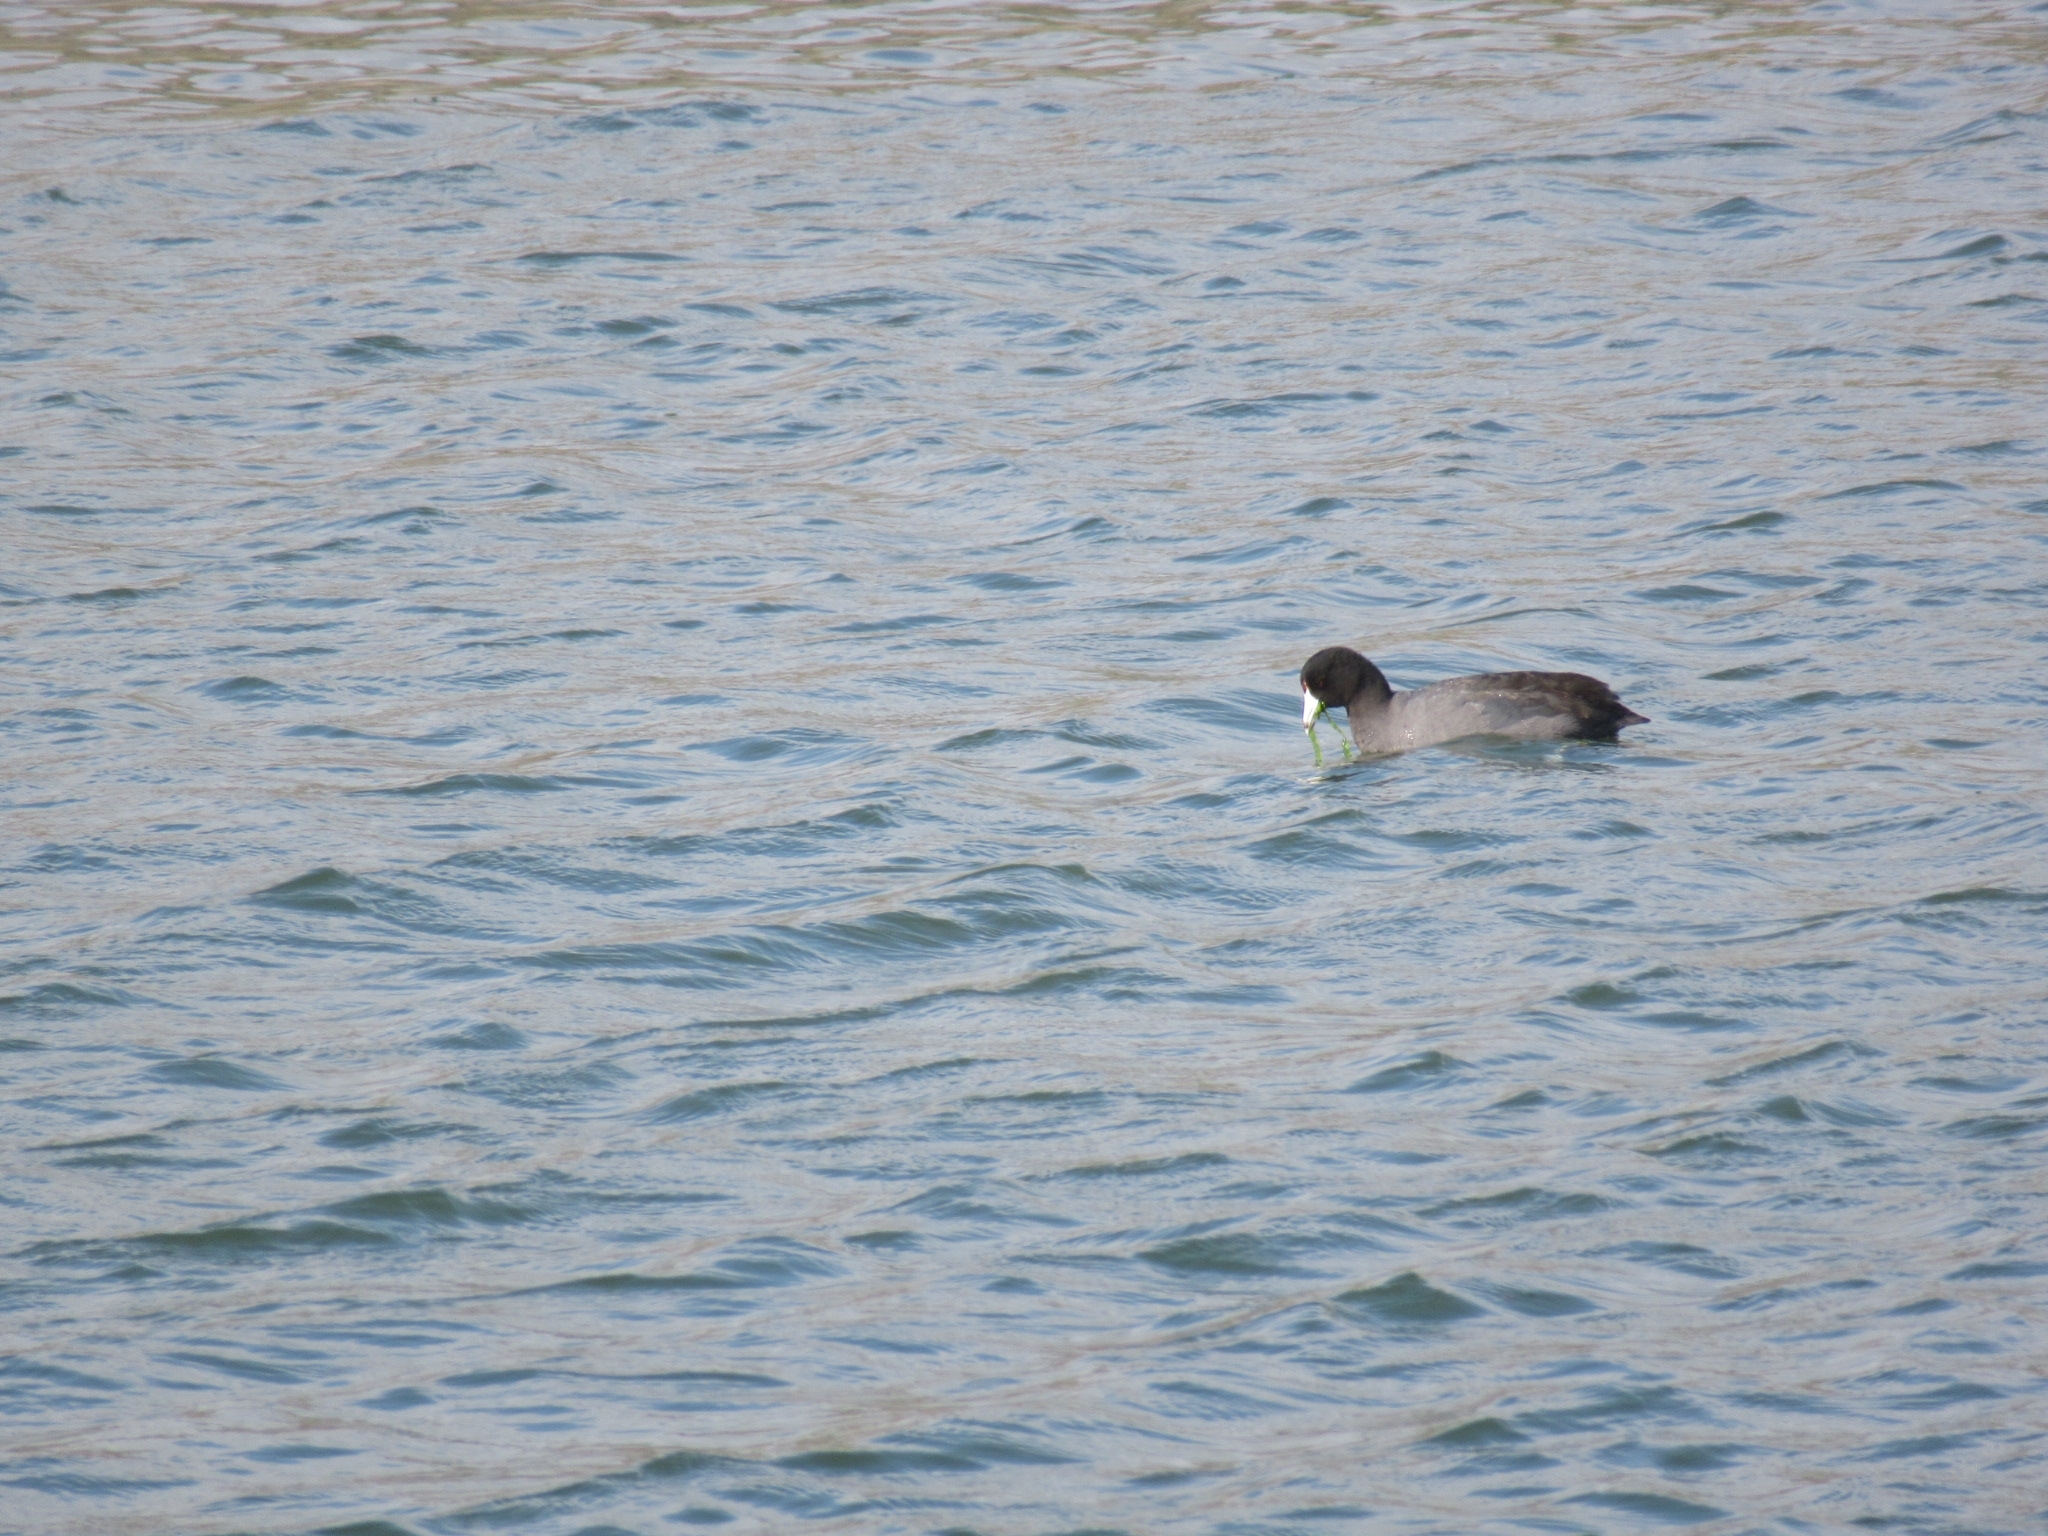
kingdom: Animalia
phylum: Chordata
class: Aves
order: Gruiformes
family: Rallidae
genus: Fulica
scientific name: Fulica americana
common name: American coot
